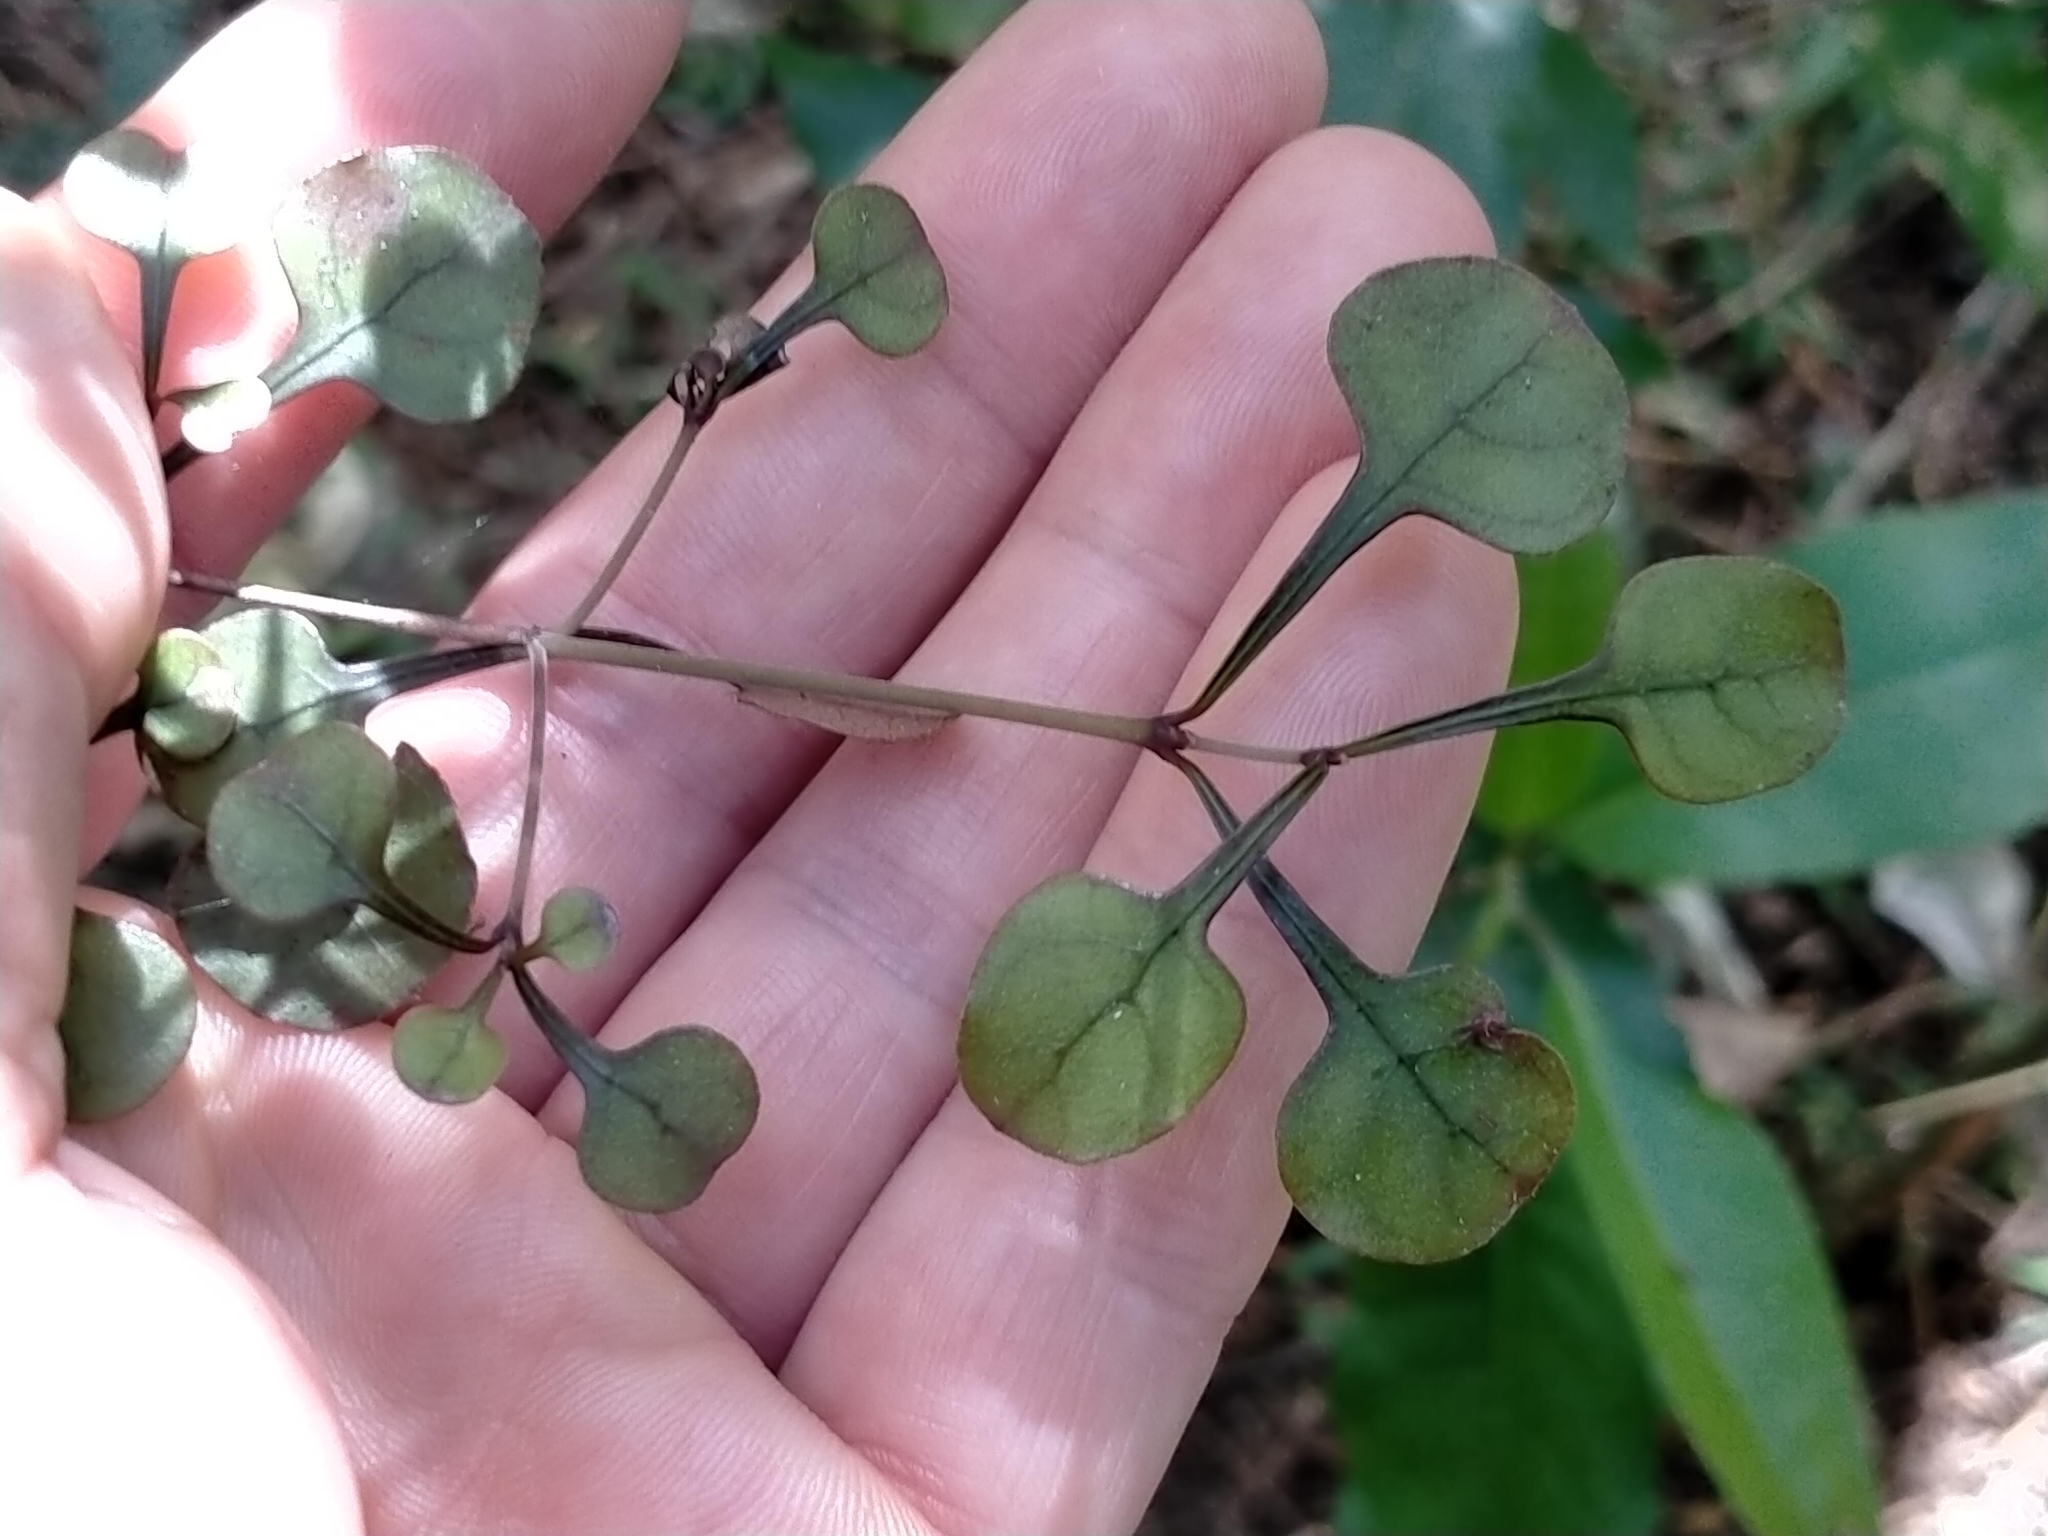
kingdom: Plantae
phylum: Tracheophyta
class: Magnoliopsida
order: Gentianales
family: Rubiaceae
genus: Coprosma
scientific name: Coprosma arborea
